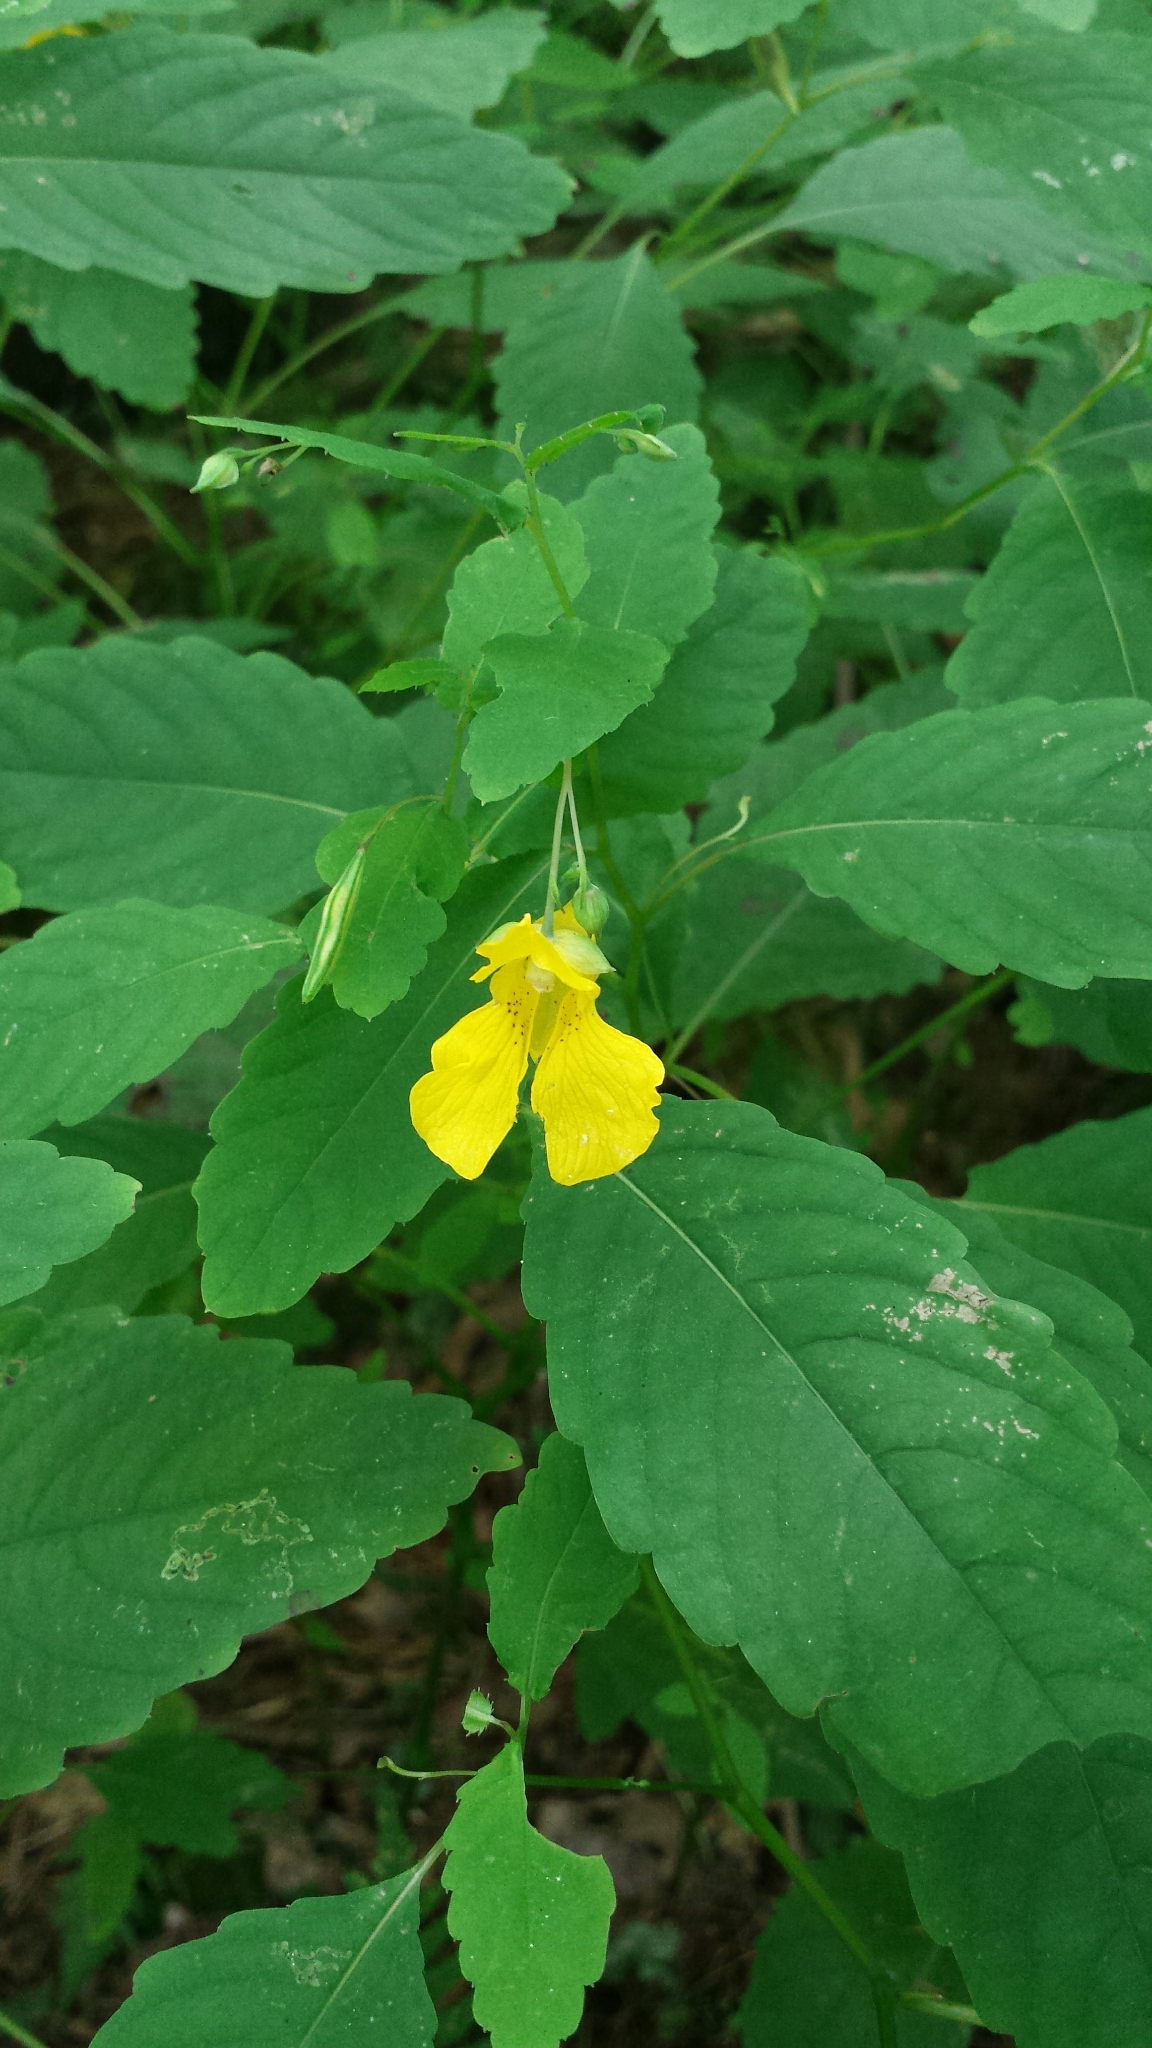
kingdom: Plantae
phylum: Tracheophyta
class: Magnoliopsida
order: Ericales
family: Balsaminaceae
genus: Impatiens
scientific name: Impatiens pallida
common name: Pale snapweed
